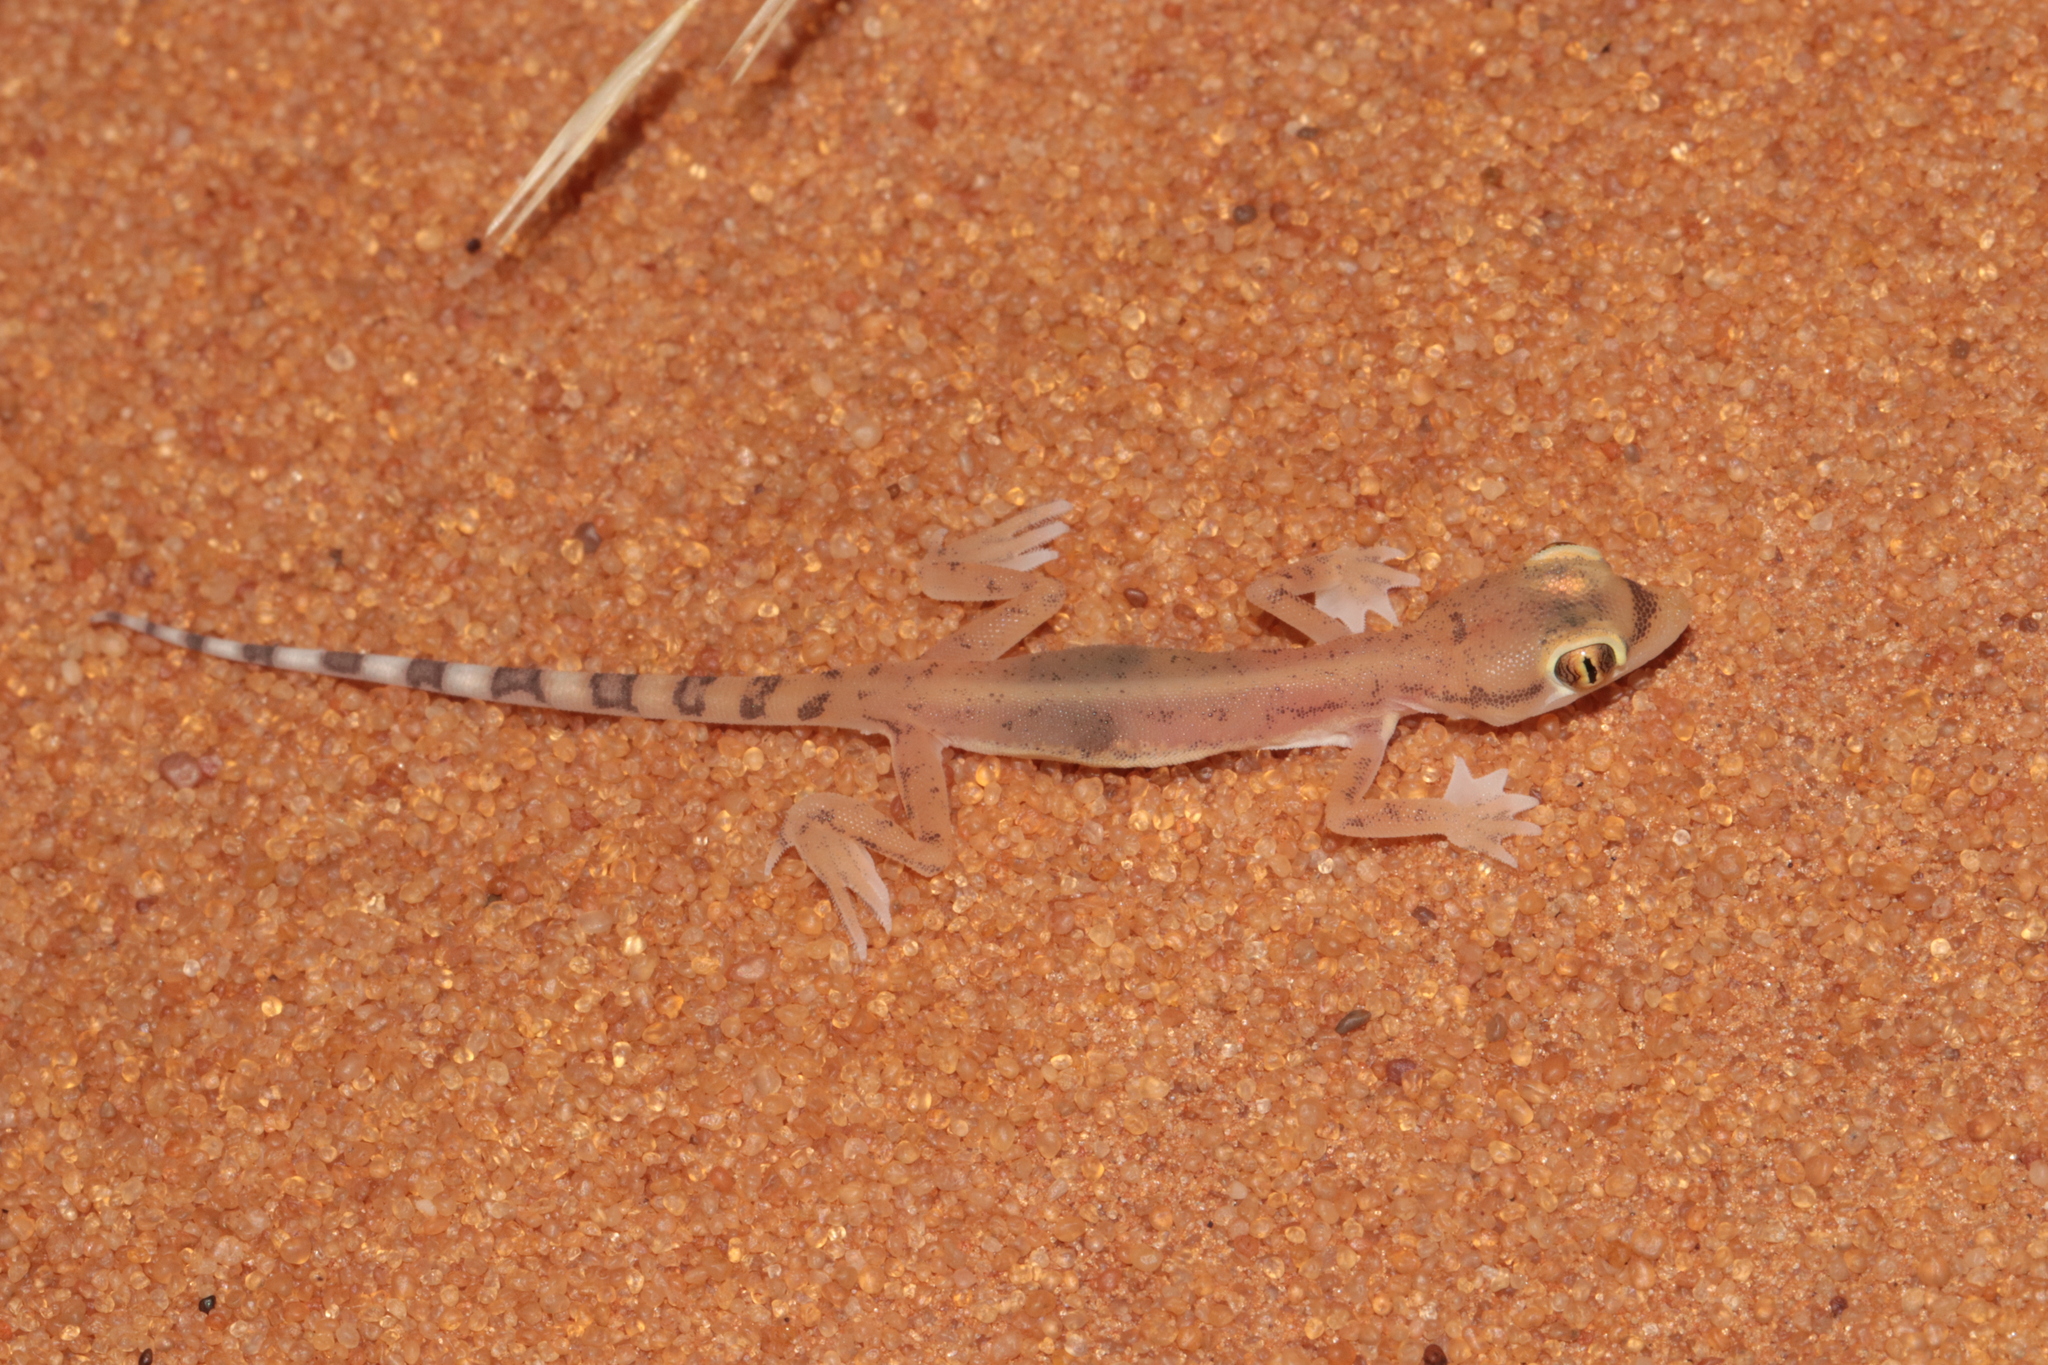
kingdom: Animalia
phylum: Chordata
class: Squamata
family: Gekkonidae
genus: Trigonodactylus
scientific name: Trigonodactylus arabicus
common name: Arabian sand gecko
